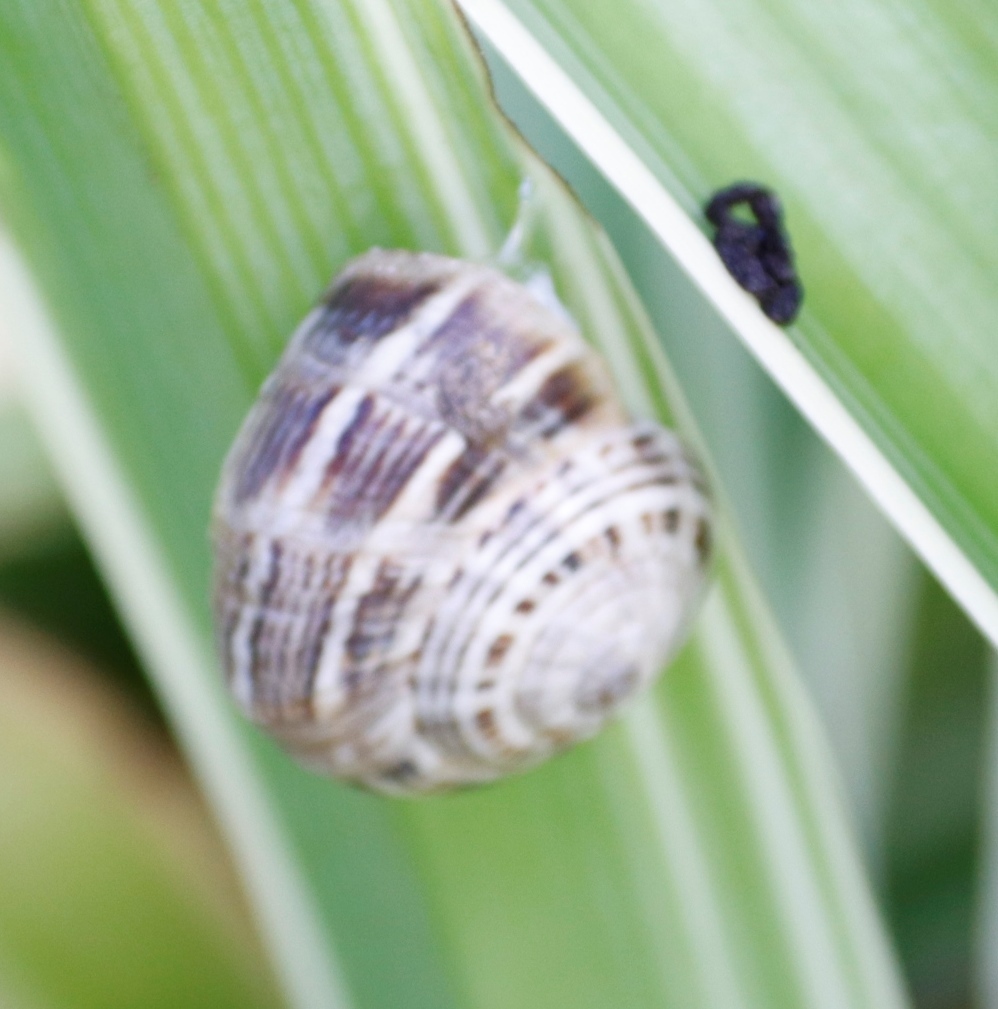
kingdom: Animalia
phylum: Mollusca
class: Gastropoda
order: Stylommatophora
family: Helicidae
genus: Theba
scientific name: Theba pisana
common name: White snail
